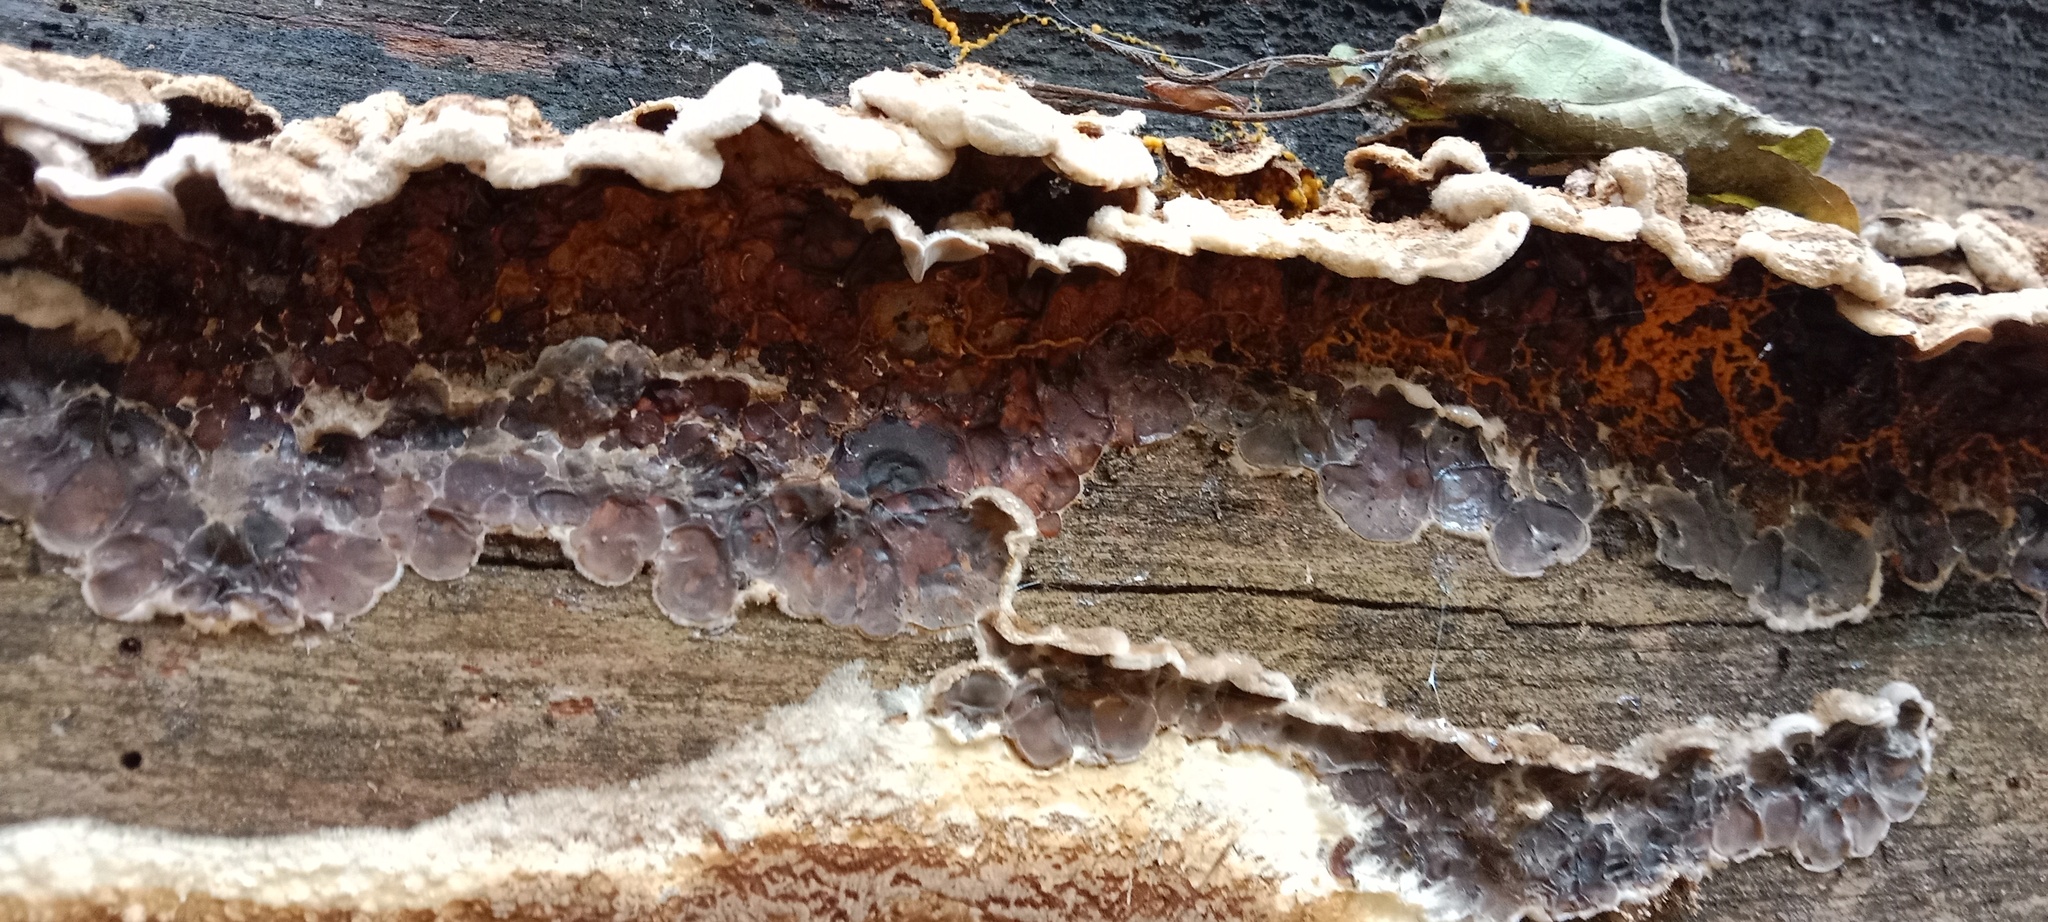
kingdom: Fungi
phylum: Basidiomycota
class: Agaricomycetes
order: Auriculariales
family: Auriculariaceae
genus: Auricularia
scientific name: Auricularia mesenterica
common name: Tripe fungus
